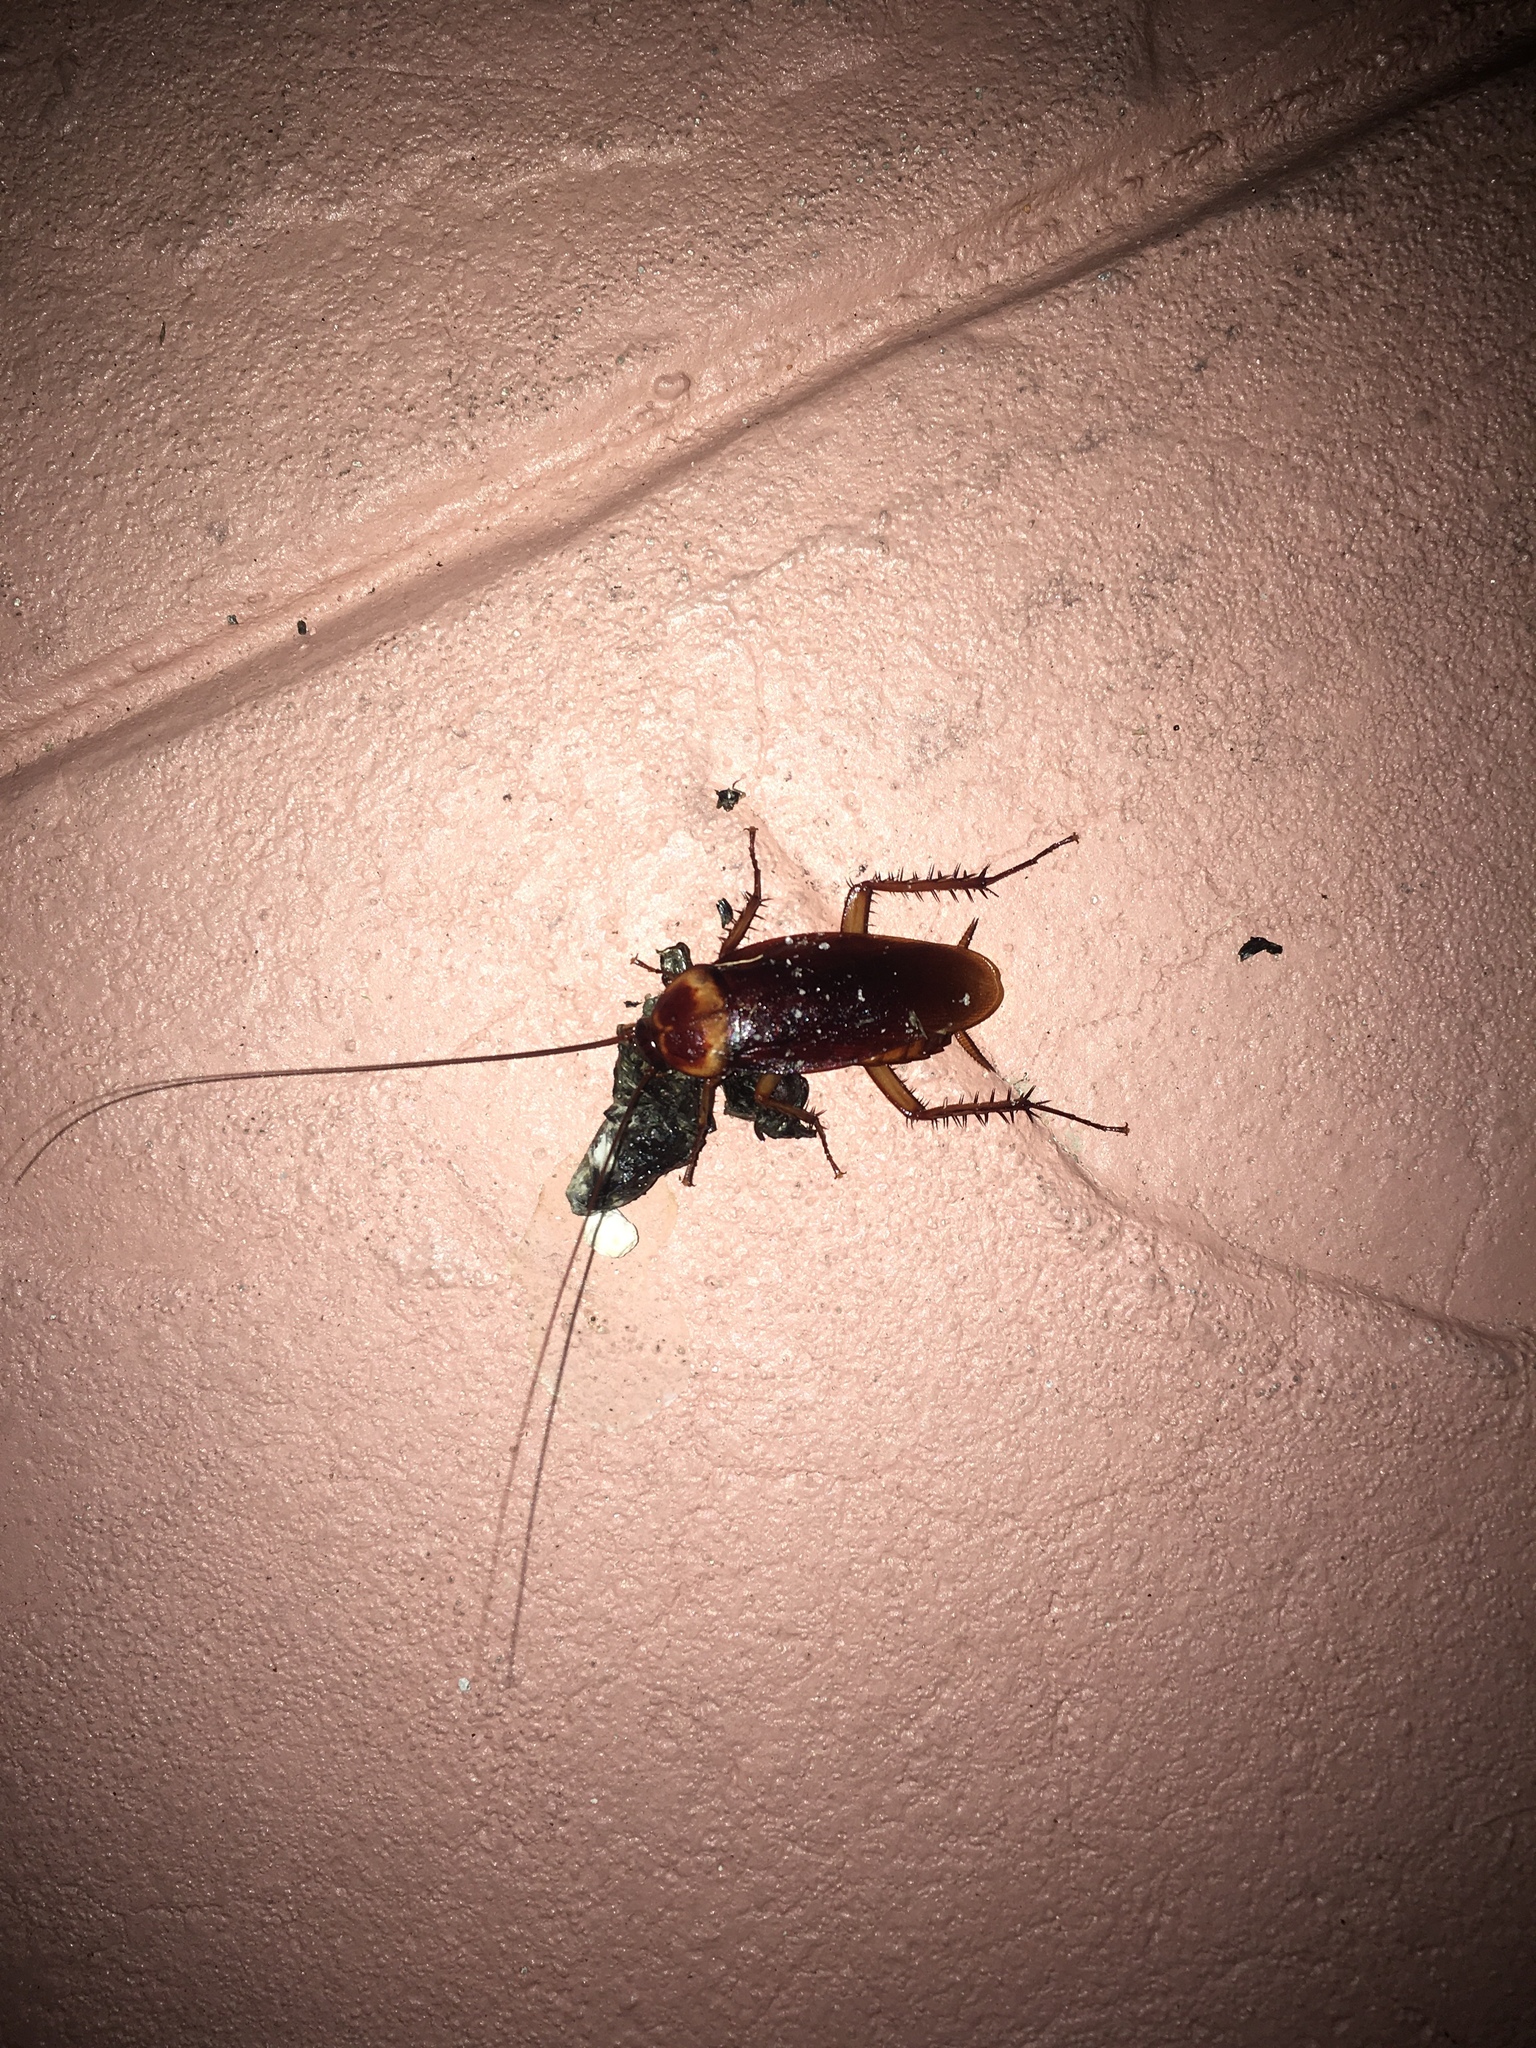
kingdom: Animalia
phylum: Arthropoda
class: Insecta
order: Blattodea
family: Blattidae
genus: Periplaneta
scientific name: Periplaneta americana
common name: American cockroach
